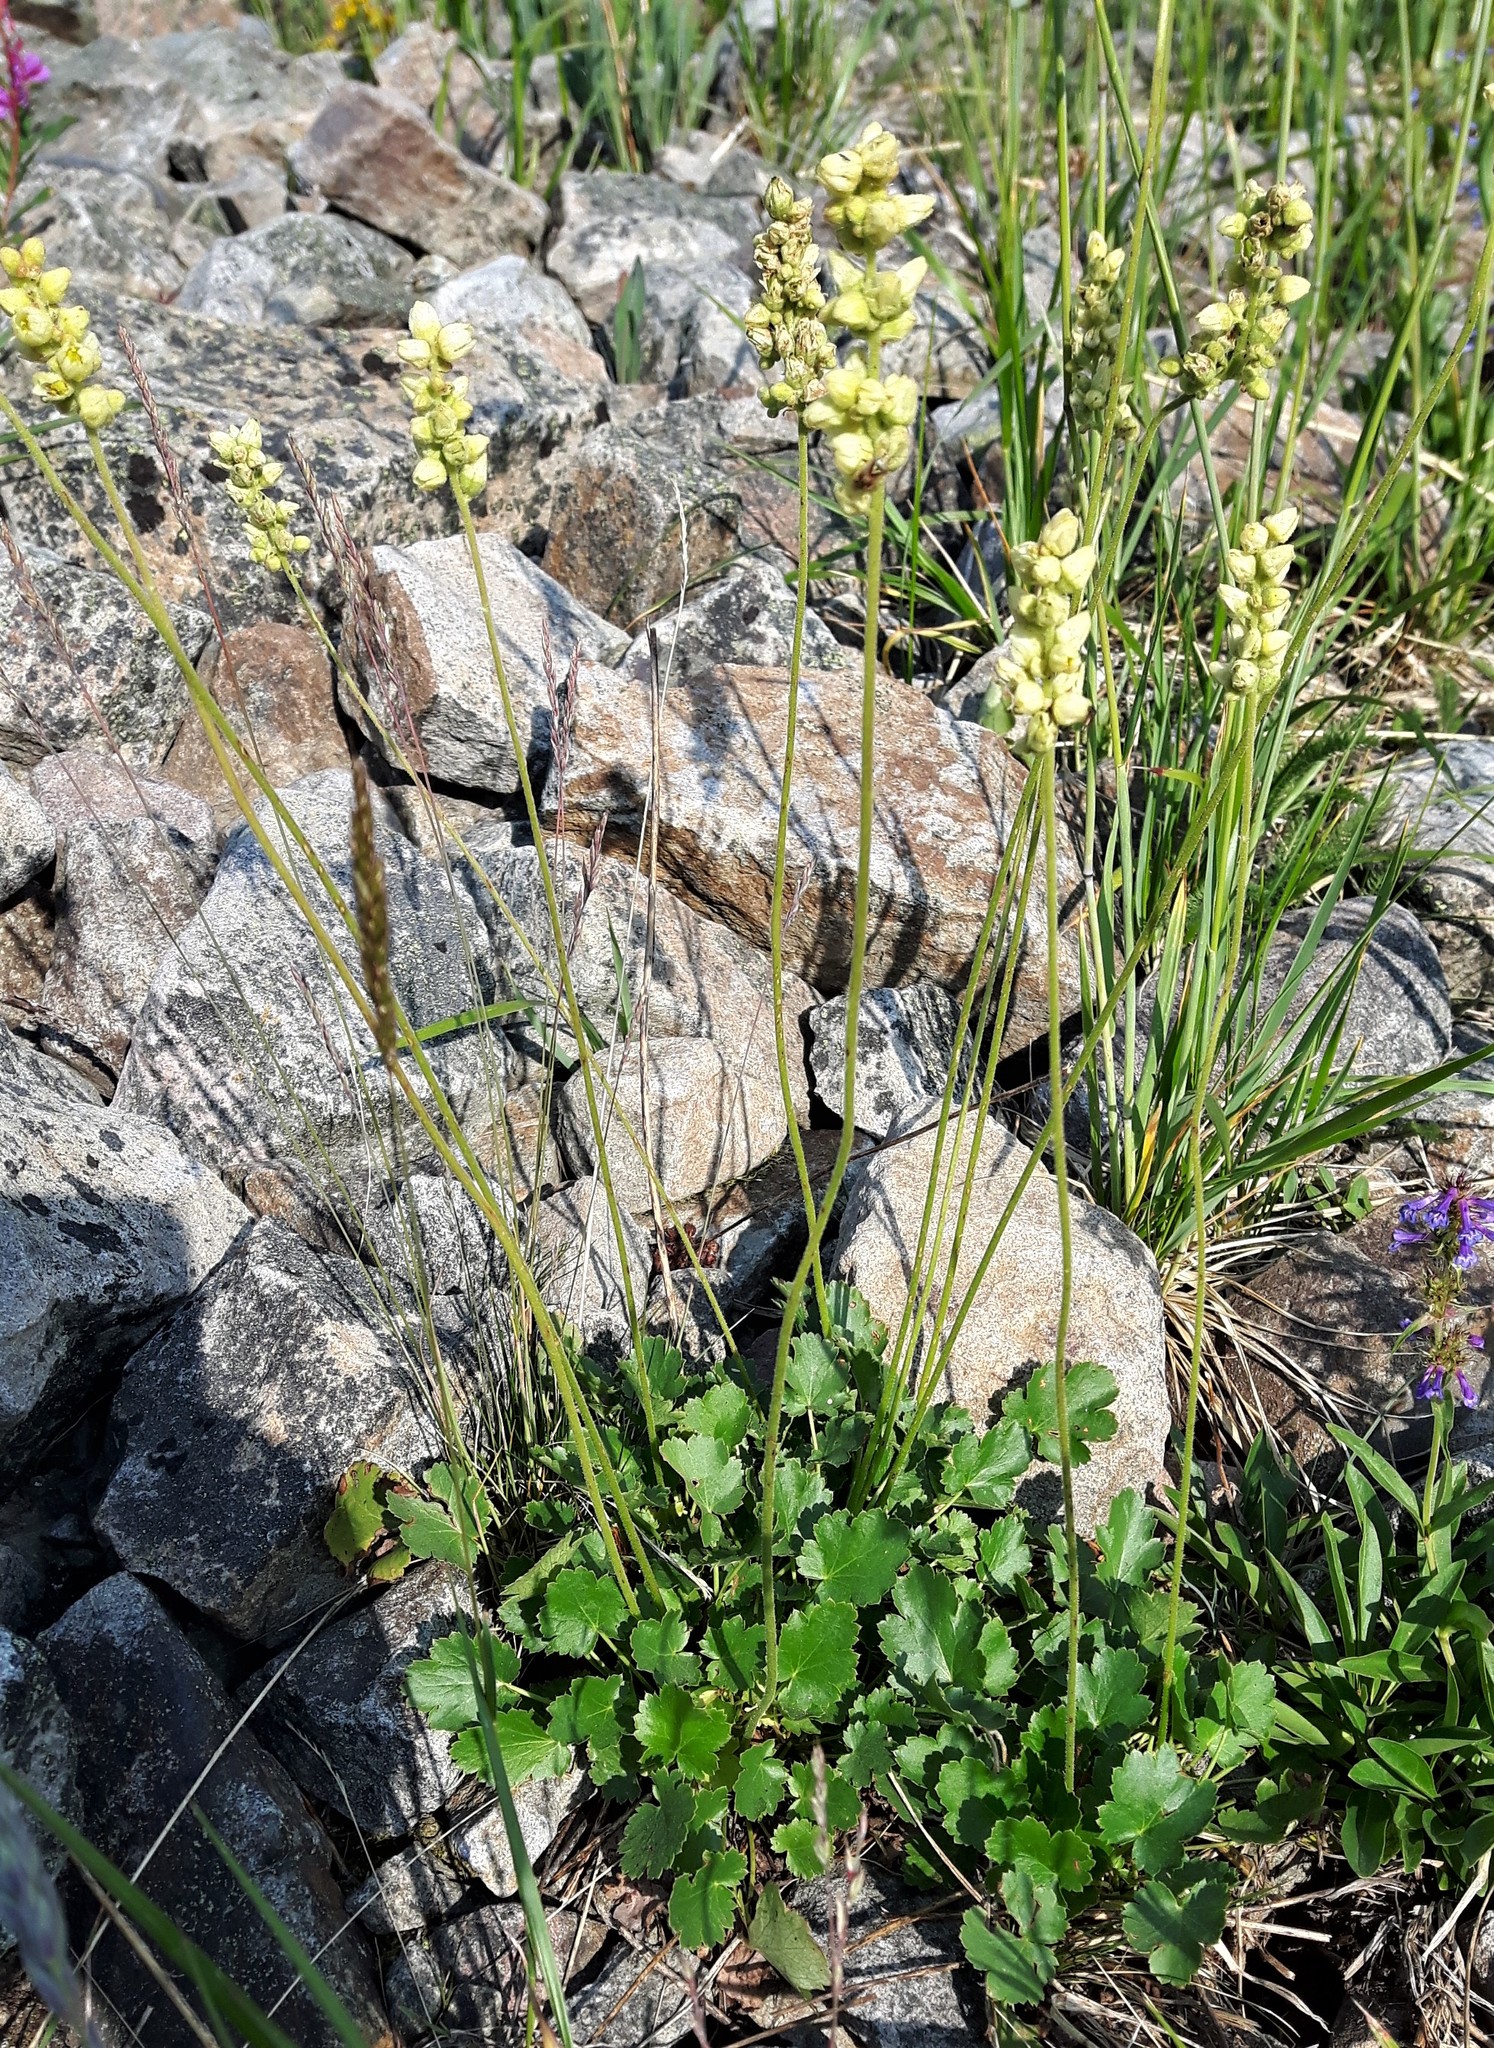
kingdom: Plantae
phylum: Tracheophyta
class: Magnoliopsida
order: Saxifragales
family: Saxifragaceae
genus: Heuchera
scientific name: Heuchera cylindrica
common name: Mat alumroot
